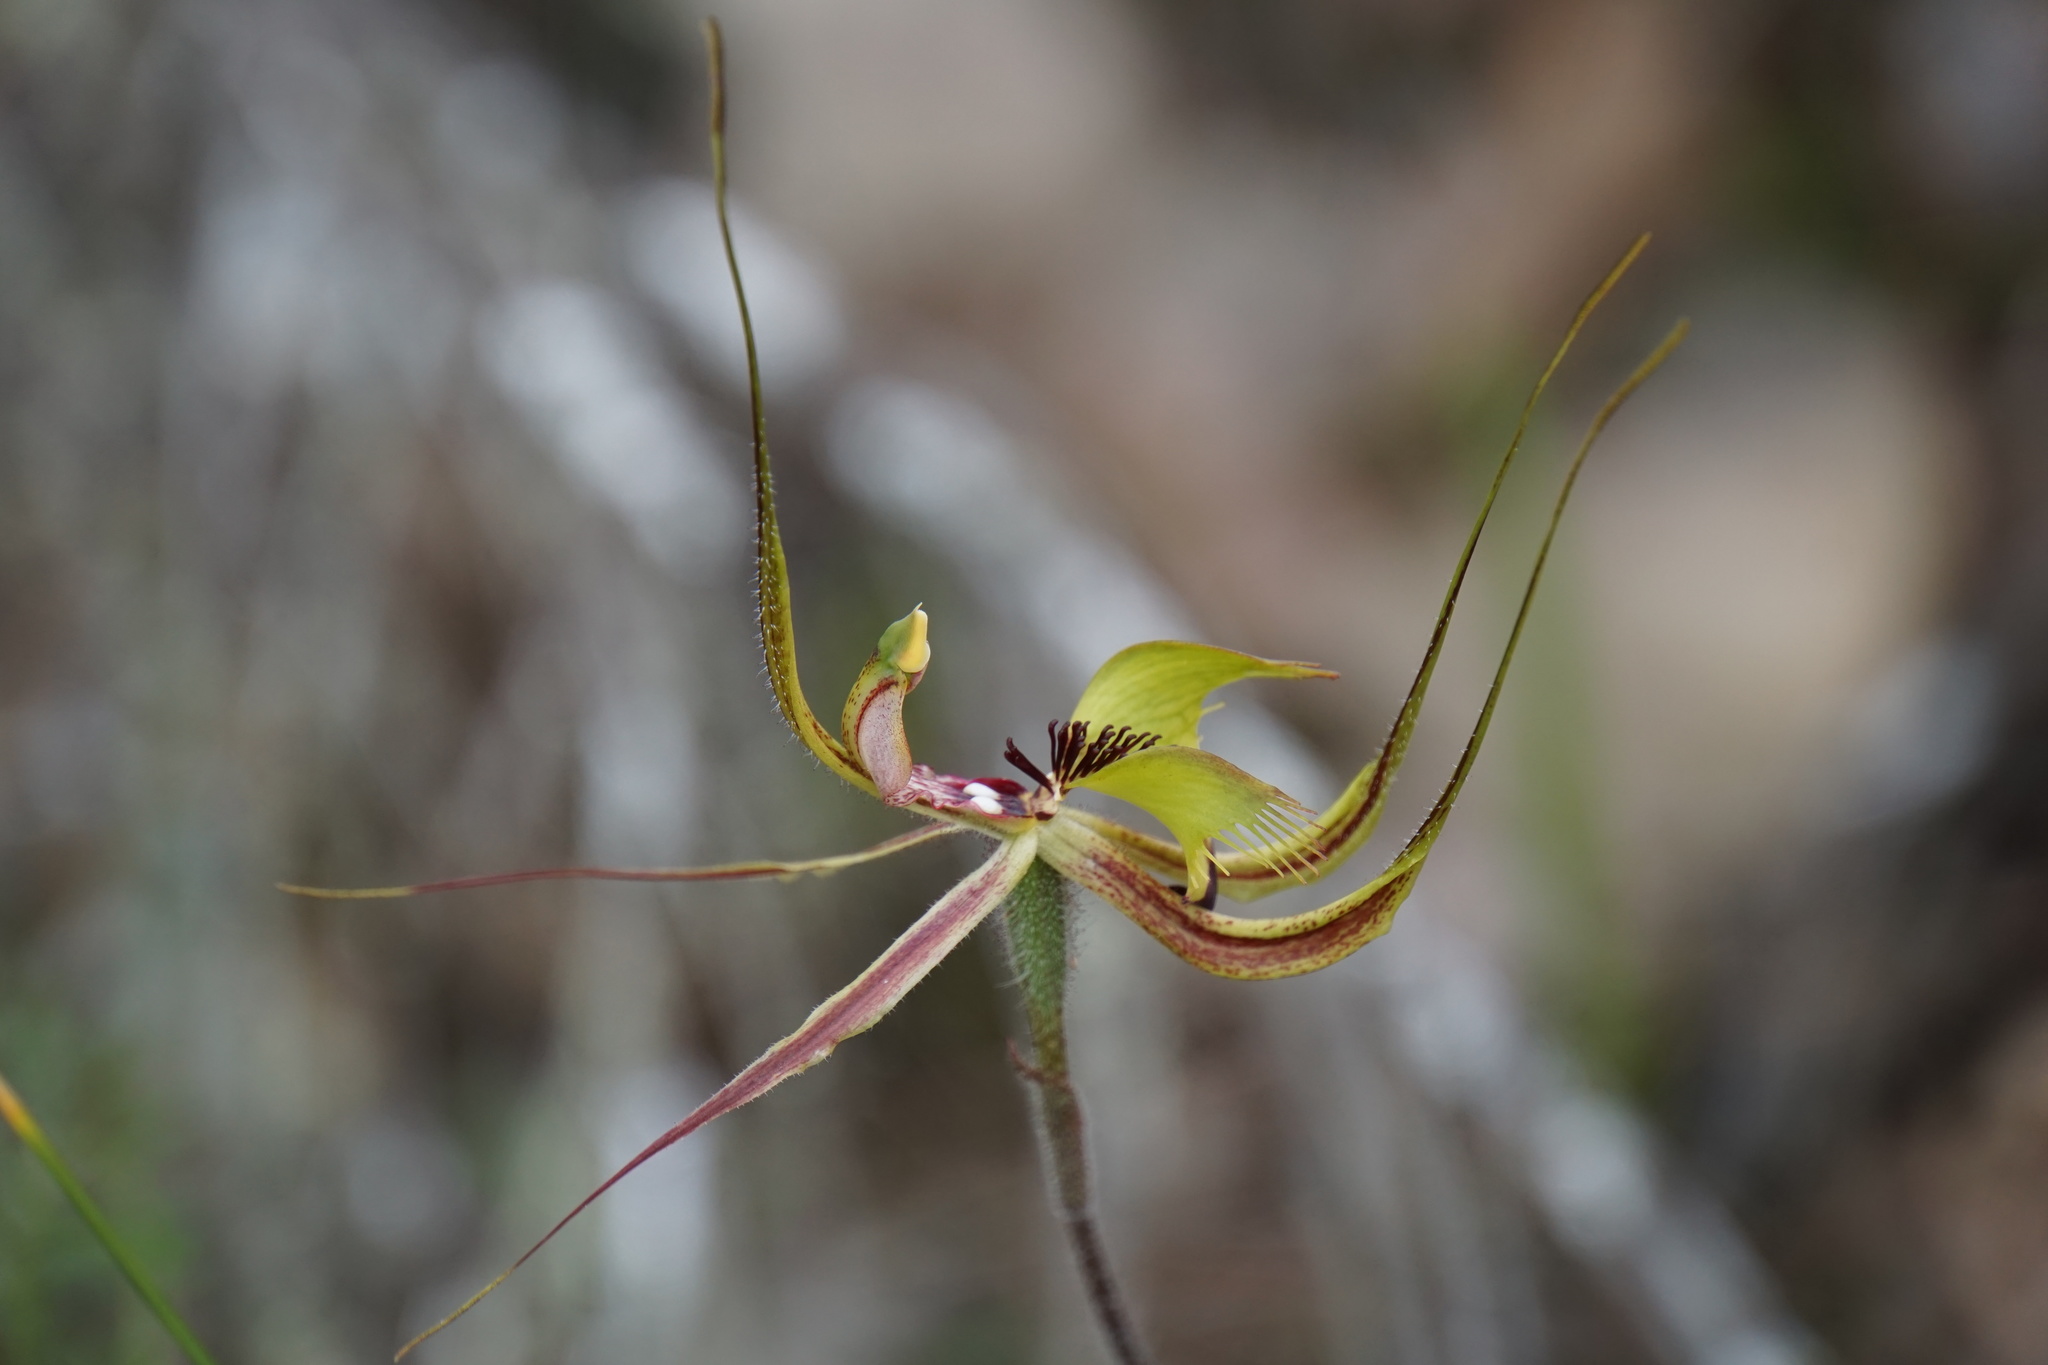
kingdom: Plantae
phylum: Tracheophyta
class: Liliopsida
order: Asparagales
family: Orchidaceae
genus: Caladenia
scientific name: Caladenia falcata
